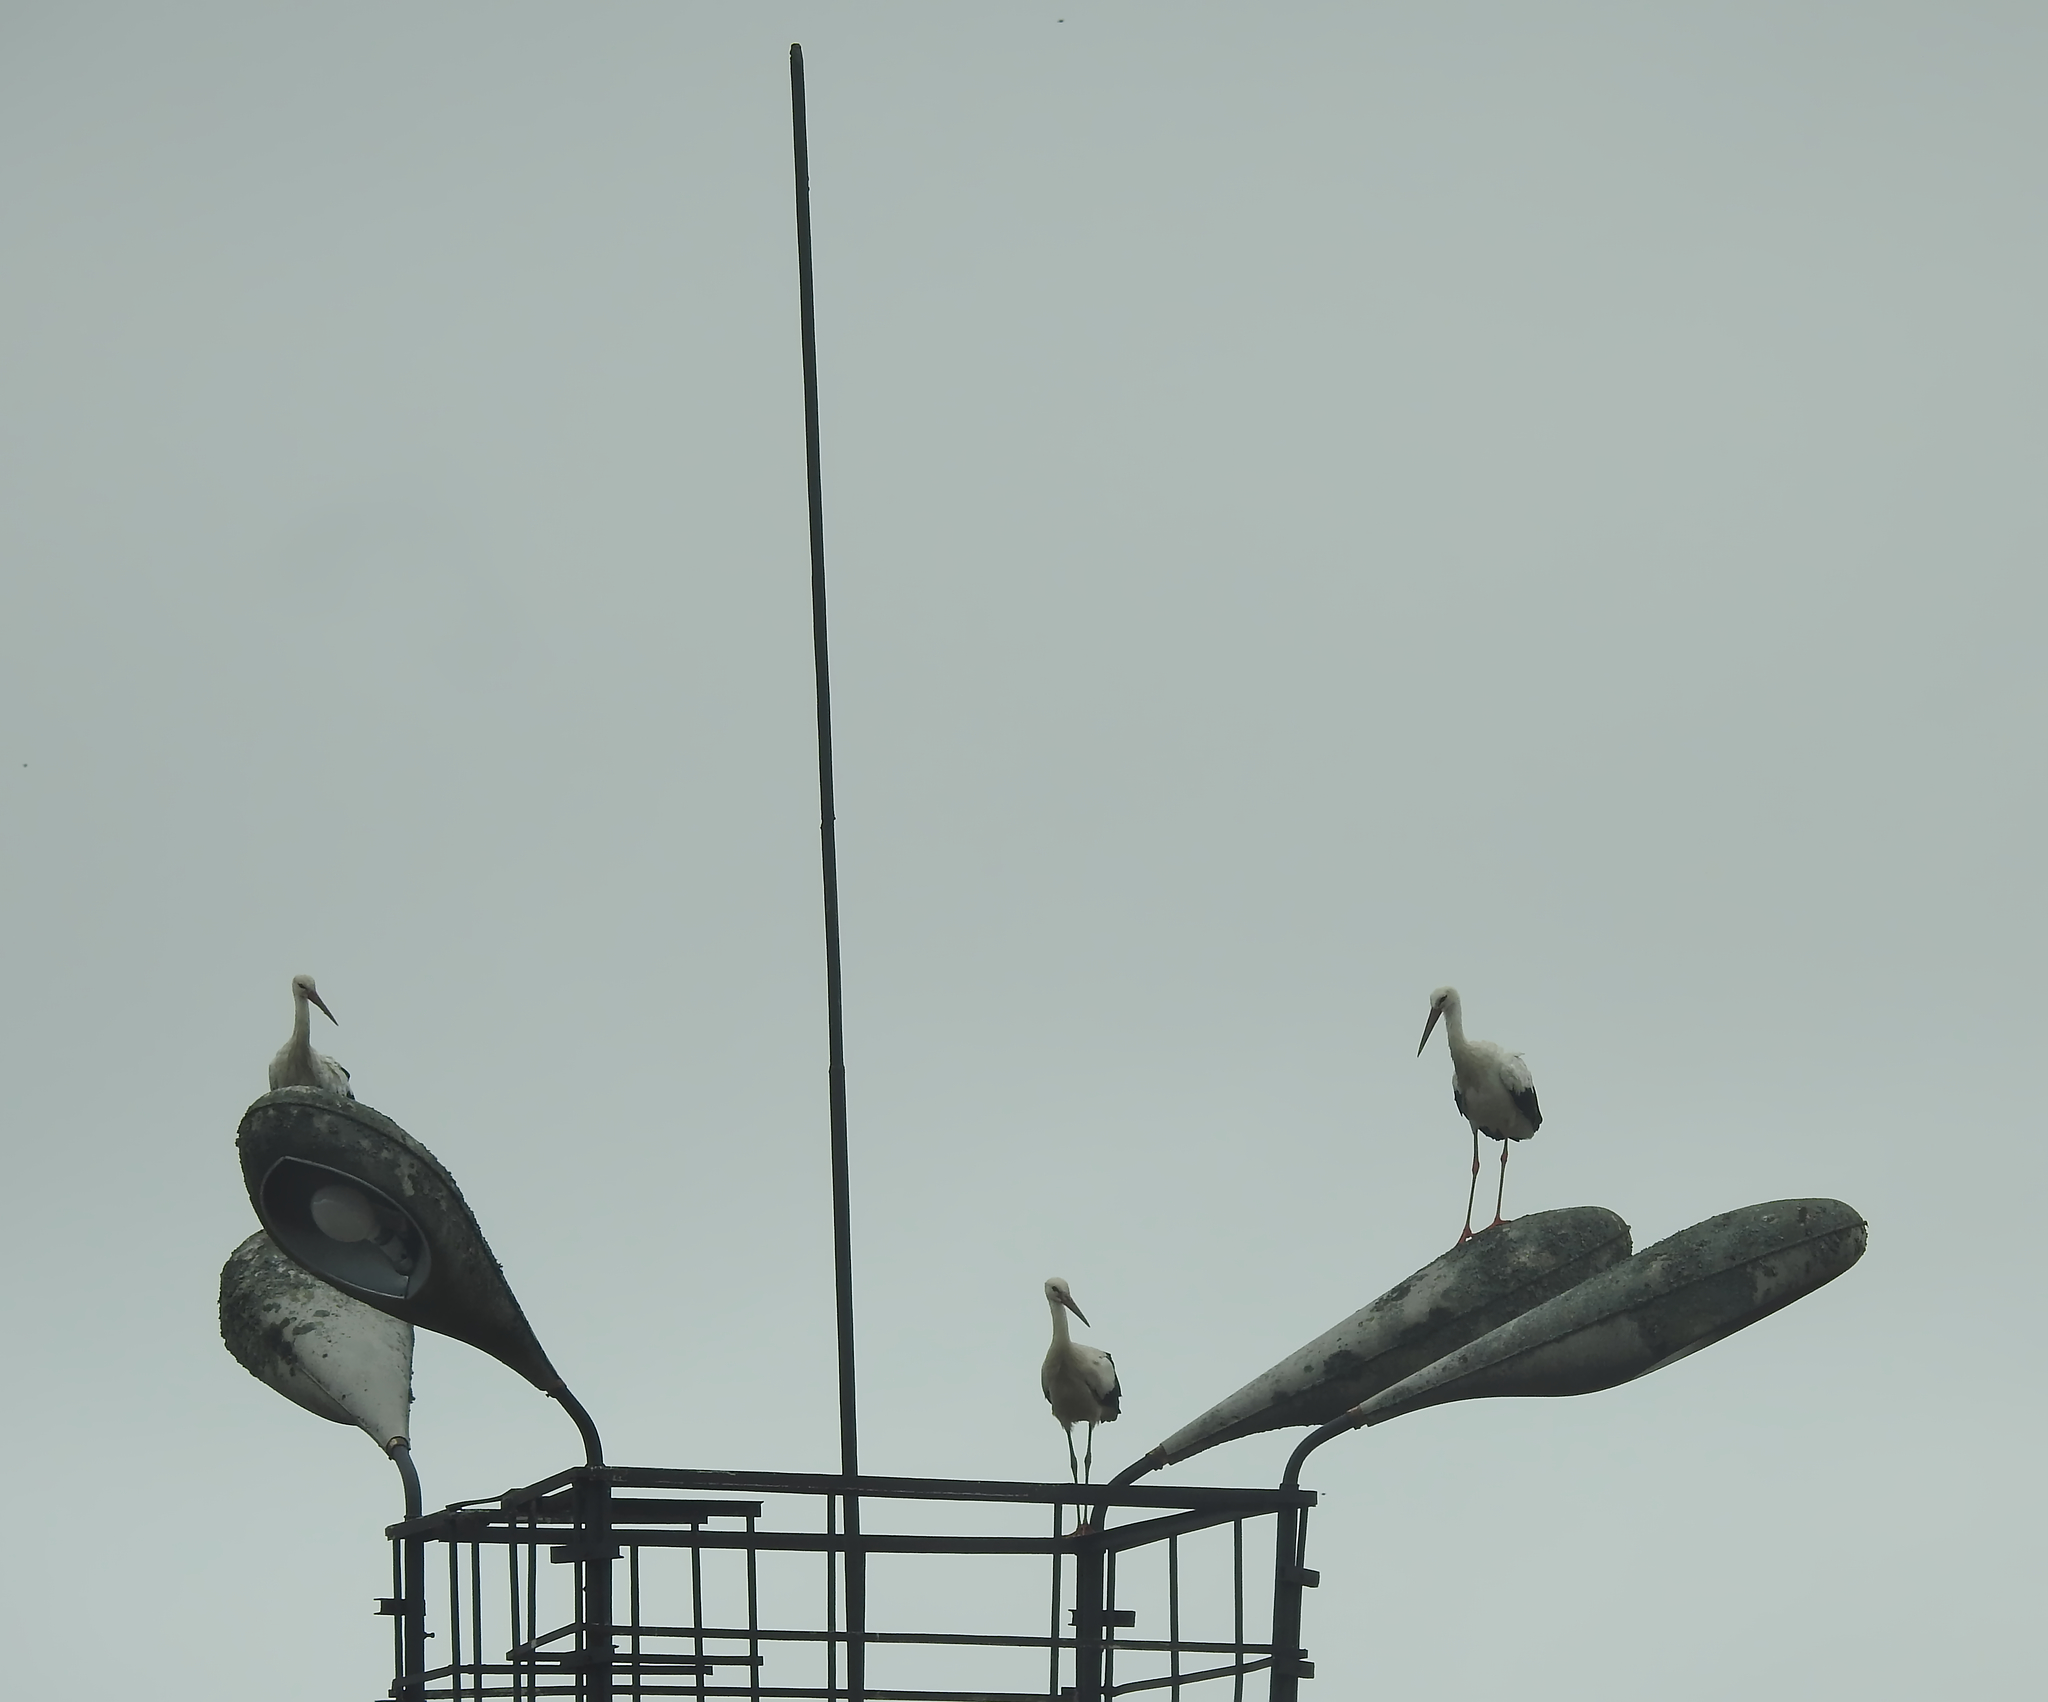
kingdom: Animalia
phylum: Chordata
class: Aves
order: Ciconiiformes
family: Ciconiidae
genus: Ciconia
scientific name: Ciconia ciconia
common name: White stork
